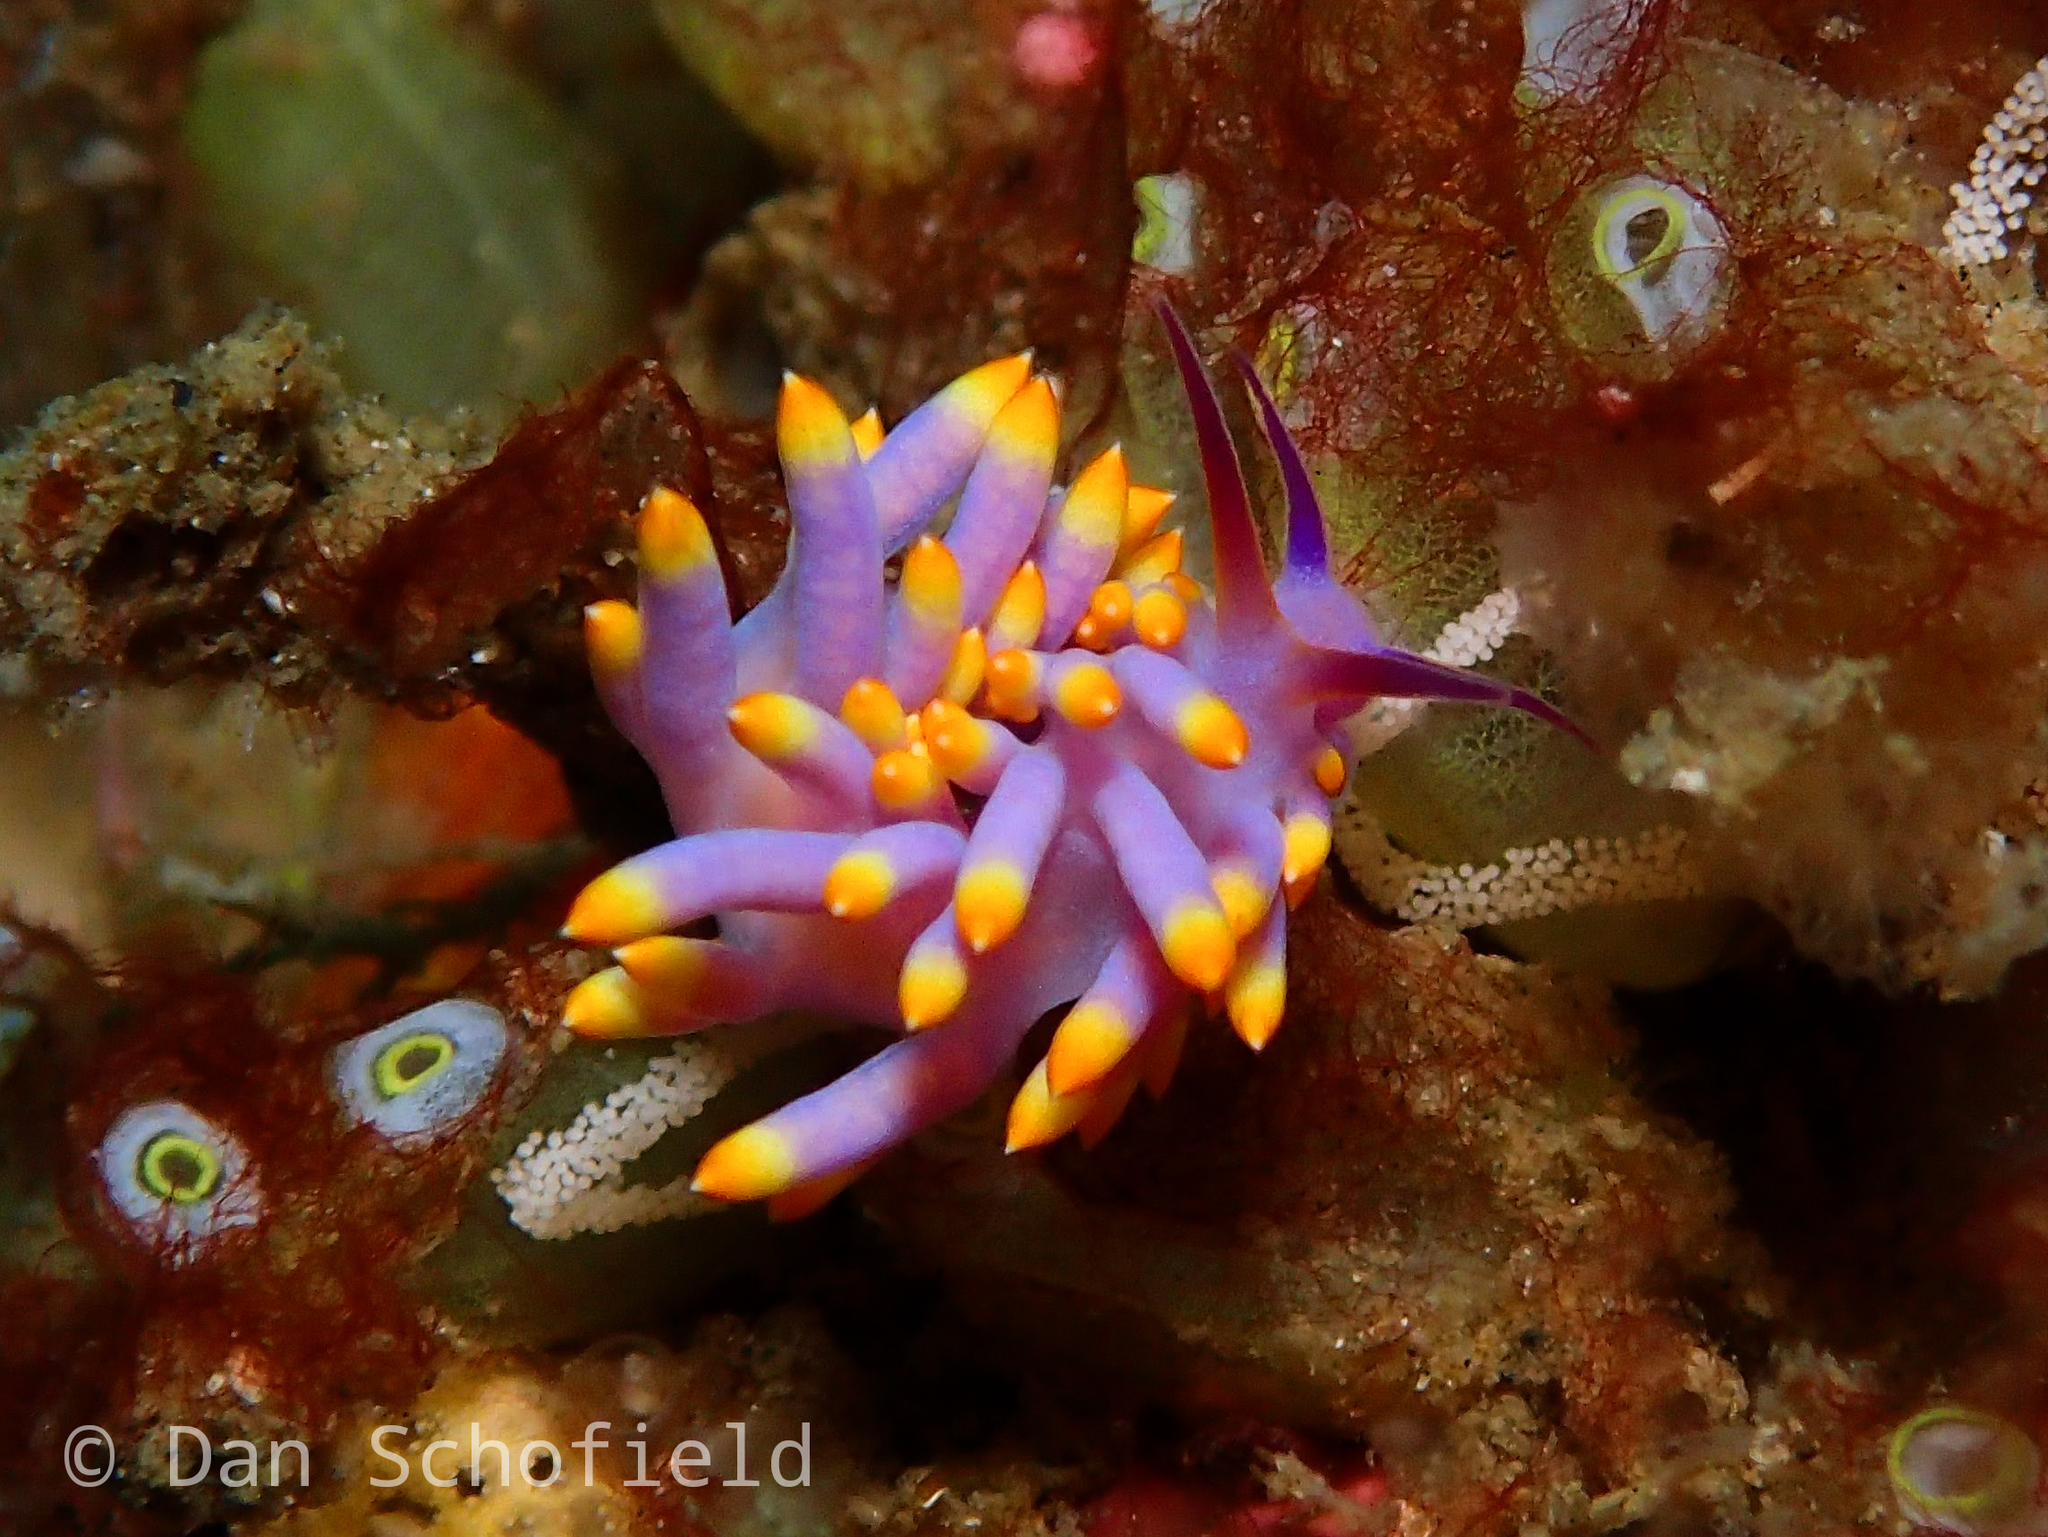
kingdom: Animalia
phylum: Mollusca
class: Gastropoda
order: Nudibranchia
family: Trinchesiidae
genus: Trinchesia
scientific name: Trinchesia sibogae
